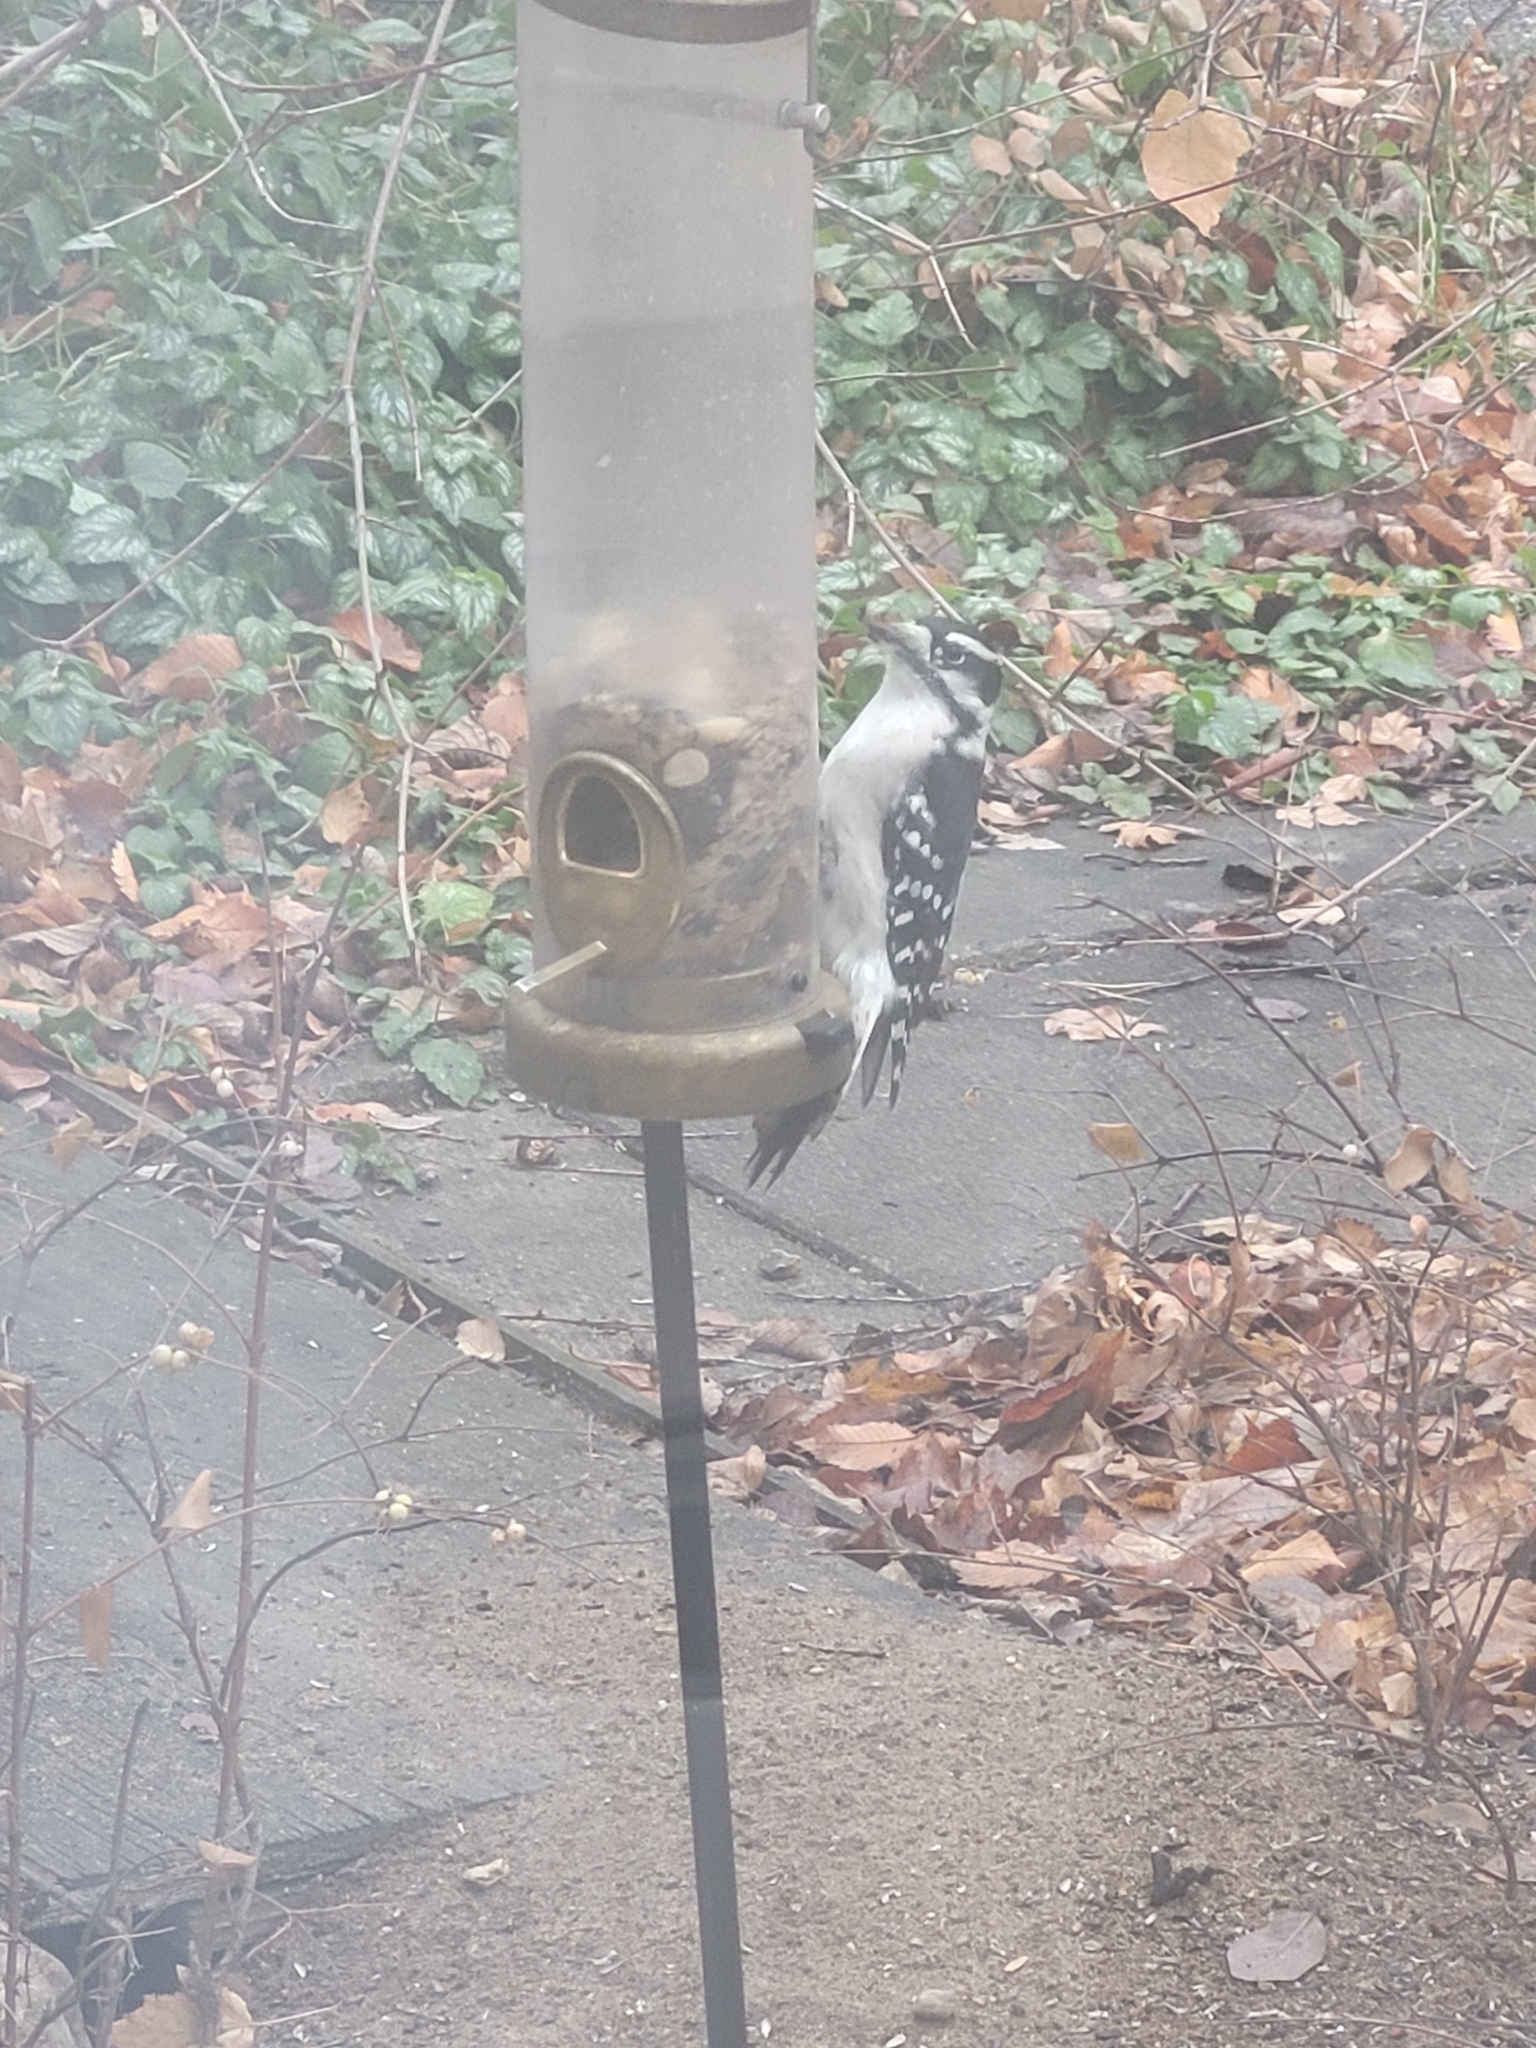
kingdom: Animalia
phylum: Chordata
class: Aves
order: Piciformes
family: Picidae
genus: Dryobates
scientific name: Dryobates pubescens
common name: Downy woodpecker
